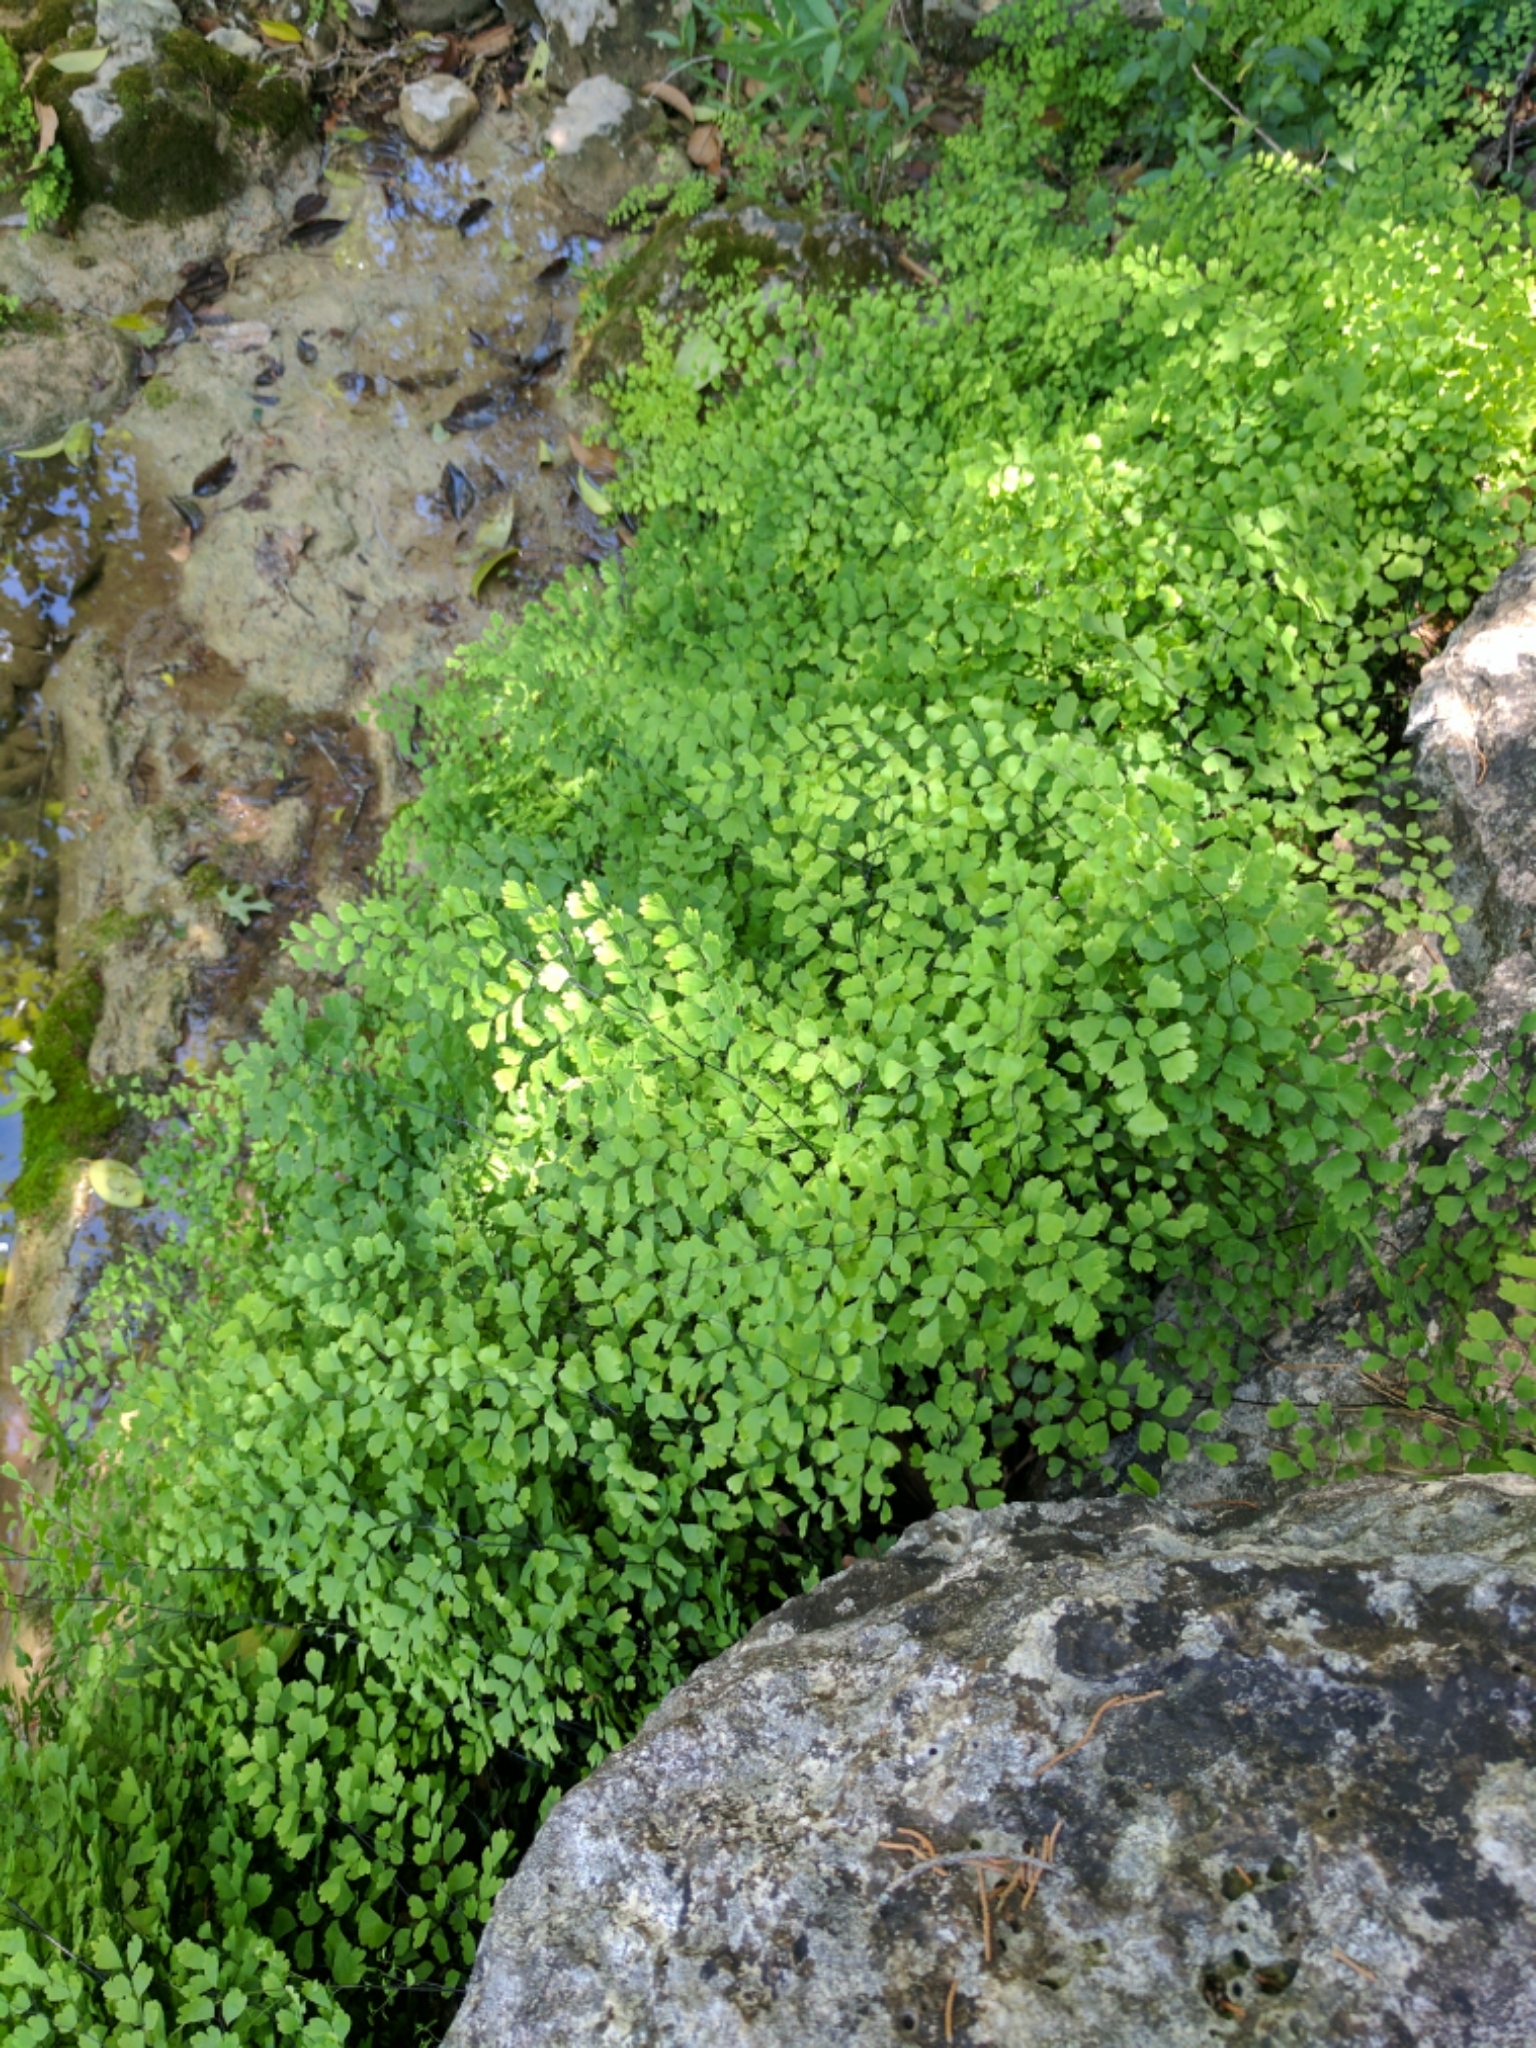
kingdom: Plantae
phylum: Tracheophyta
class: Polypodiopsida
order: Polypodiales
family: Pteridaceae
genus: Adiantum
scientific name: Adiantum capillus-veneris
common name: Maidenhair fern
